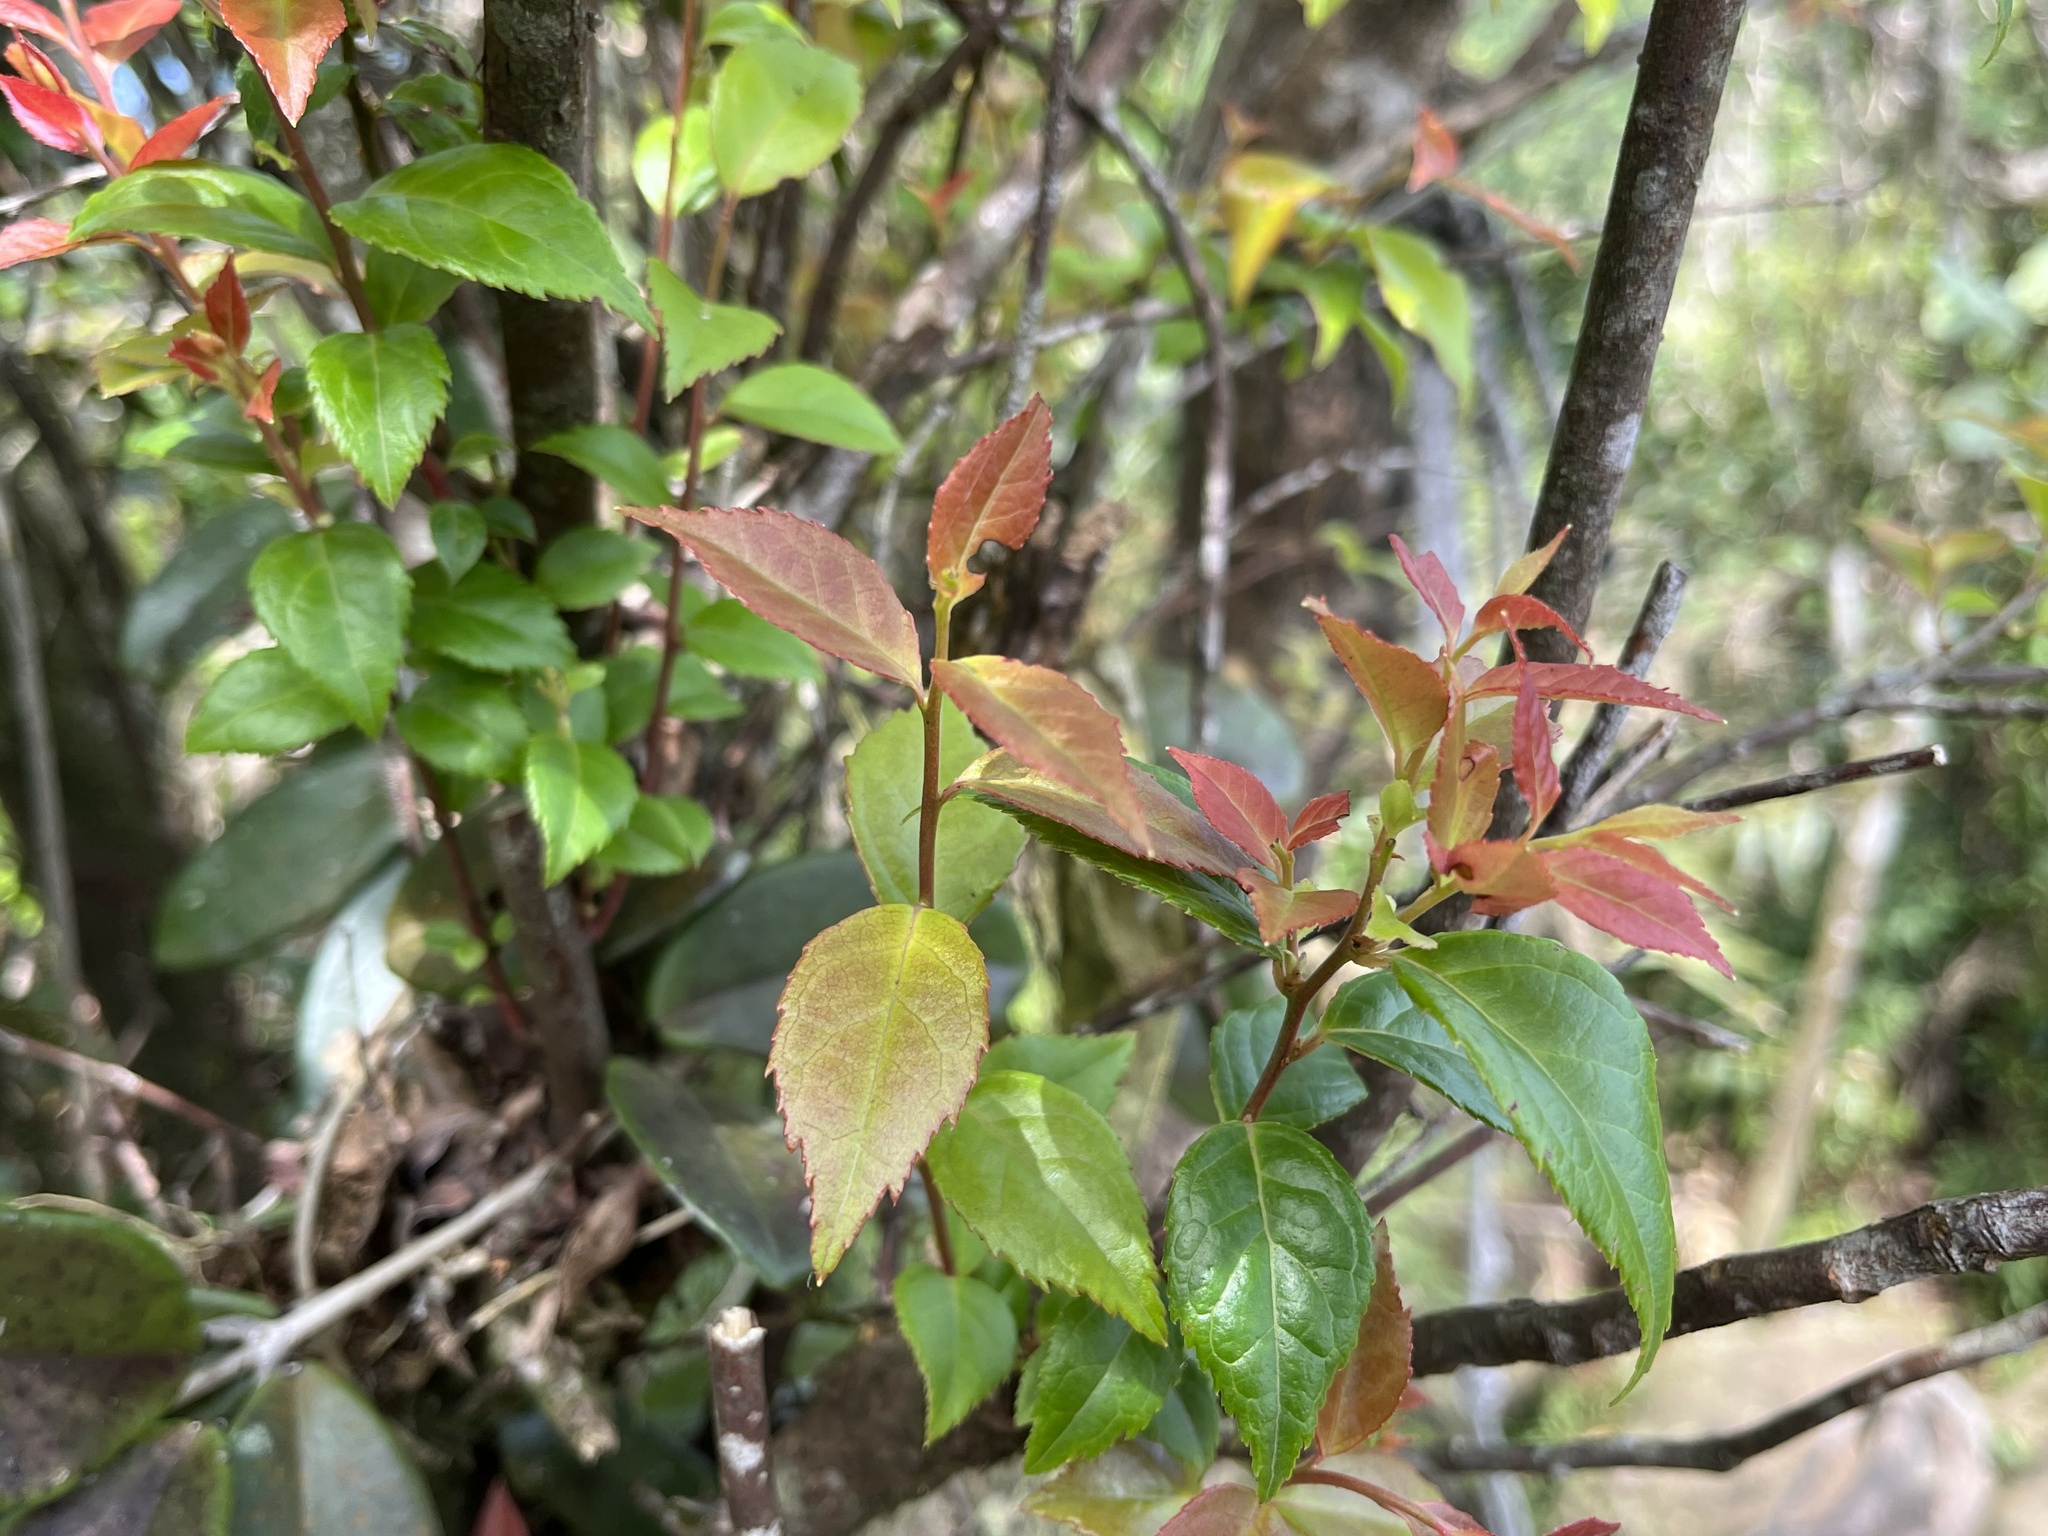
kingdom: Plantae
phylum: Tracheophyta
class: Magnoliopsida
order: Ericales
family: Ericaceae
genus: Vaccinium
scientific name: Vaccinium bracteatum
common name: Sea bilberry
